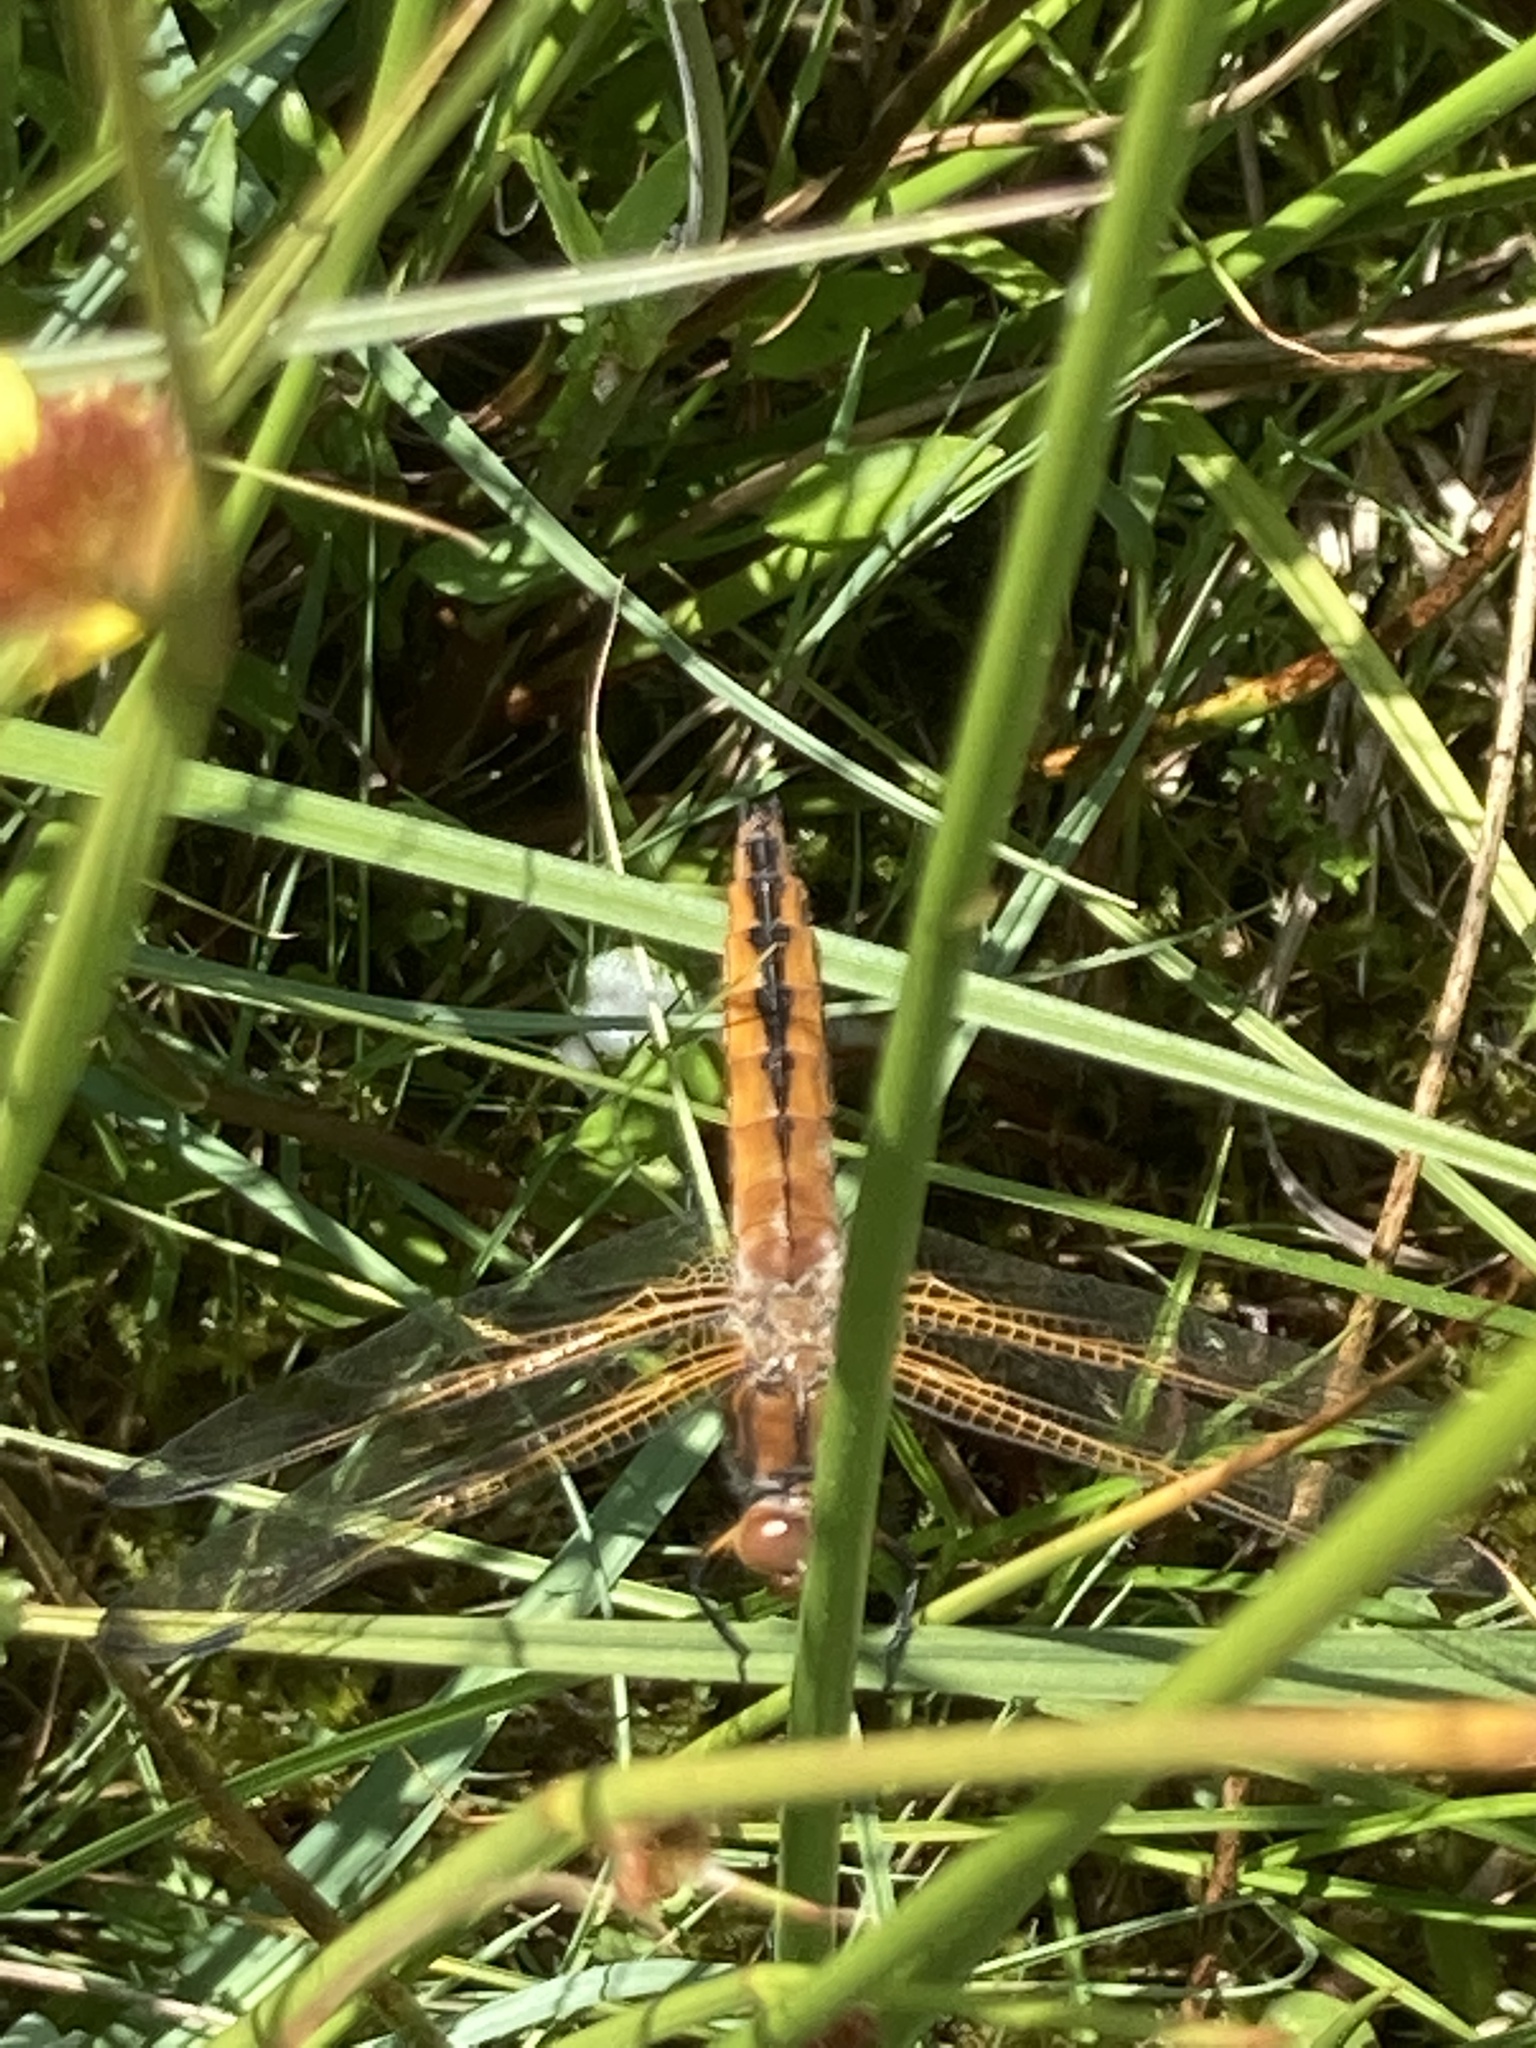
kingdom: Animalia
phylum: Arthropoda
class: Insecta
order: Odonata
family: Libellulidae
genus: Libellula
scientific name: Libellula fulva
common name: Blue chaser
